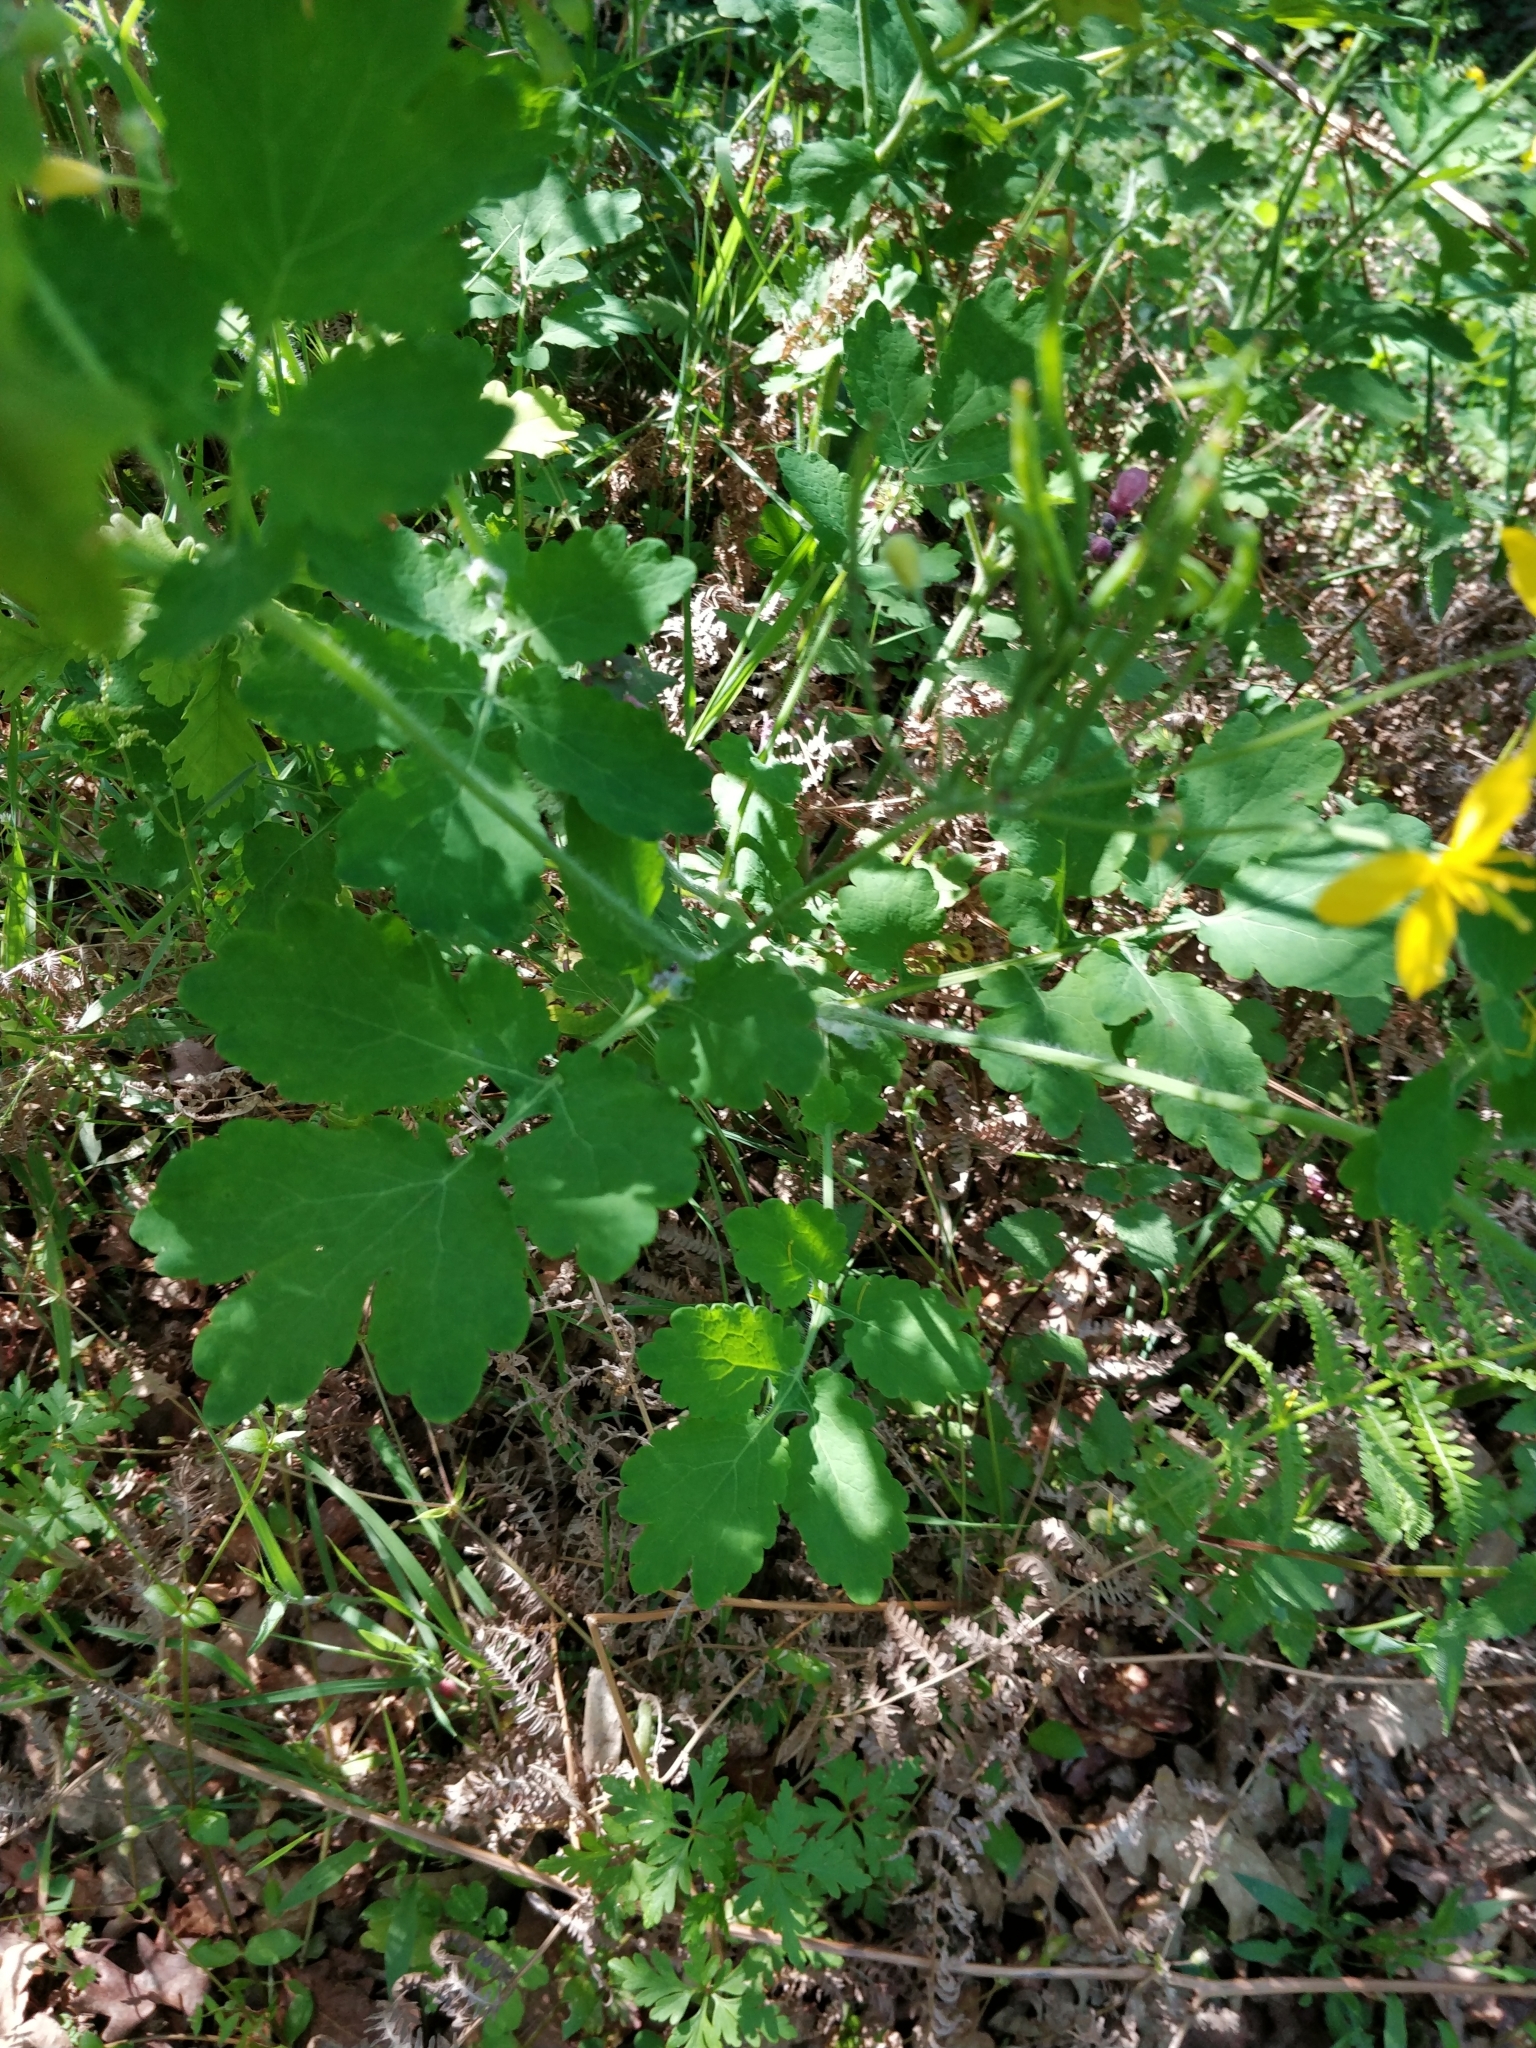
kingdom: Plantae
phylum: Tracheophyta
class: Magnoliopsida
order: Ranunculales
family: Papaveraceae
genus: Chelidonium
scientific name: Chelidonium majus
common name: Greater celandine
